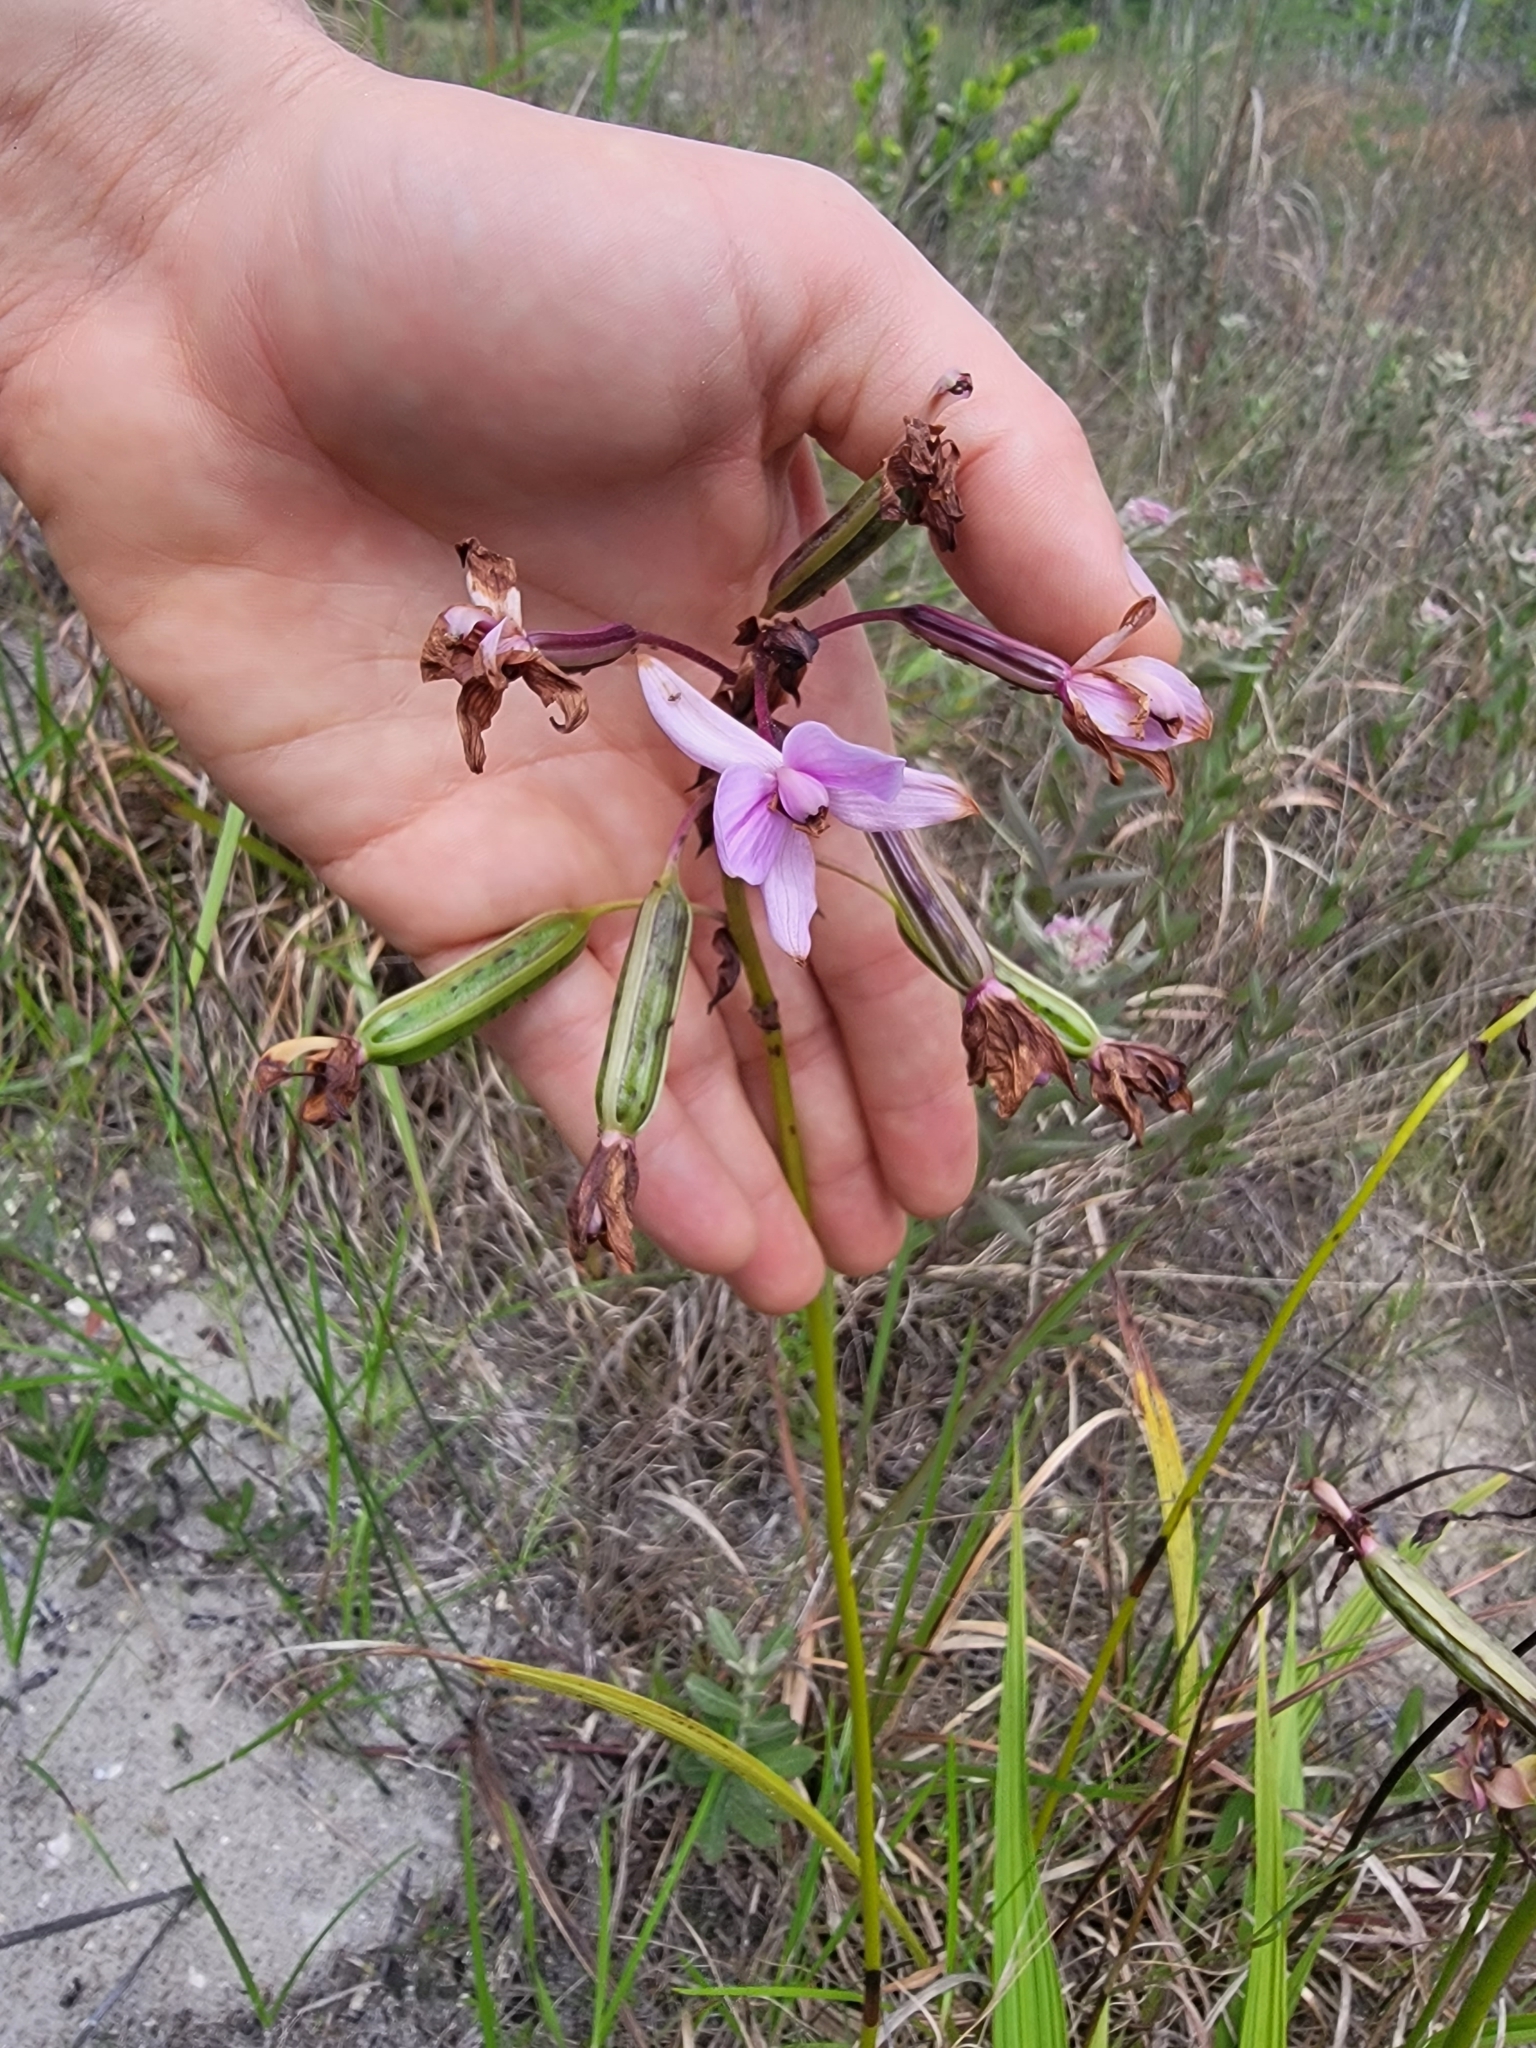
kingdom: Plantae
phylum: Tracheophyta
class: Liliopsida
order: Asparagales
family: Orchidaceae
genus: Spathoglottis
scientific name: Spathoglottis plicata
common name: Philippine ground orchid
